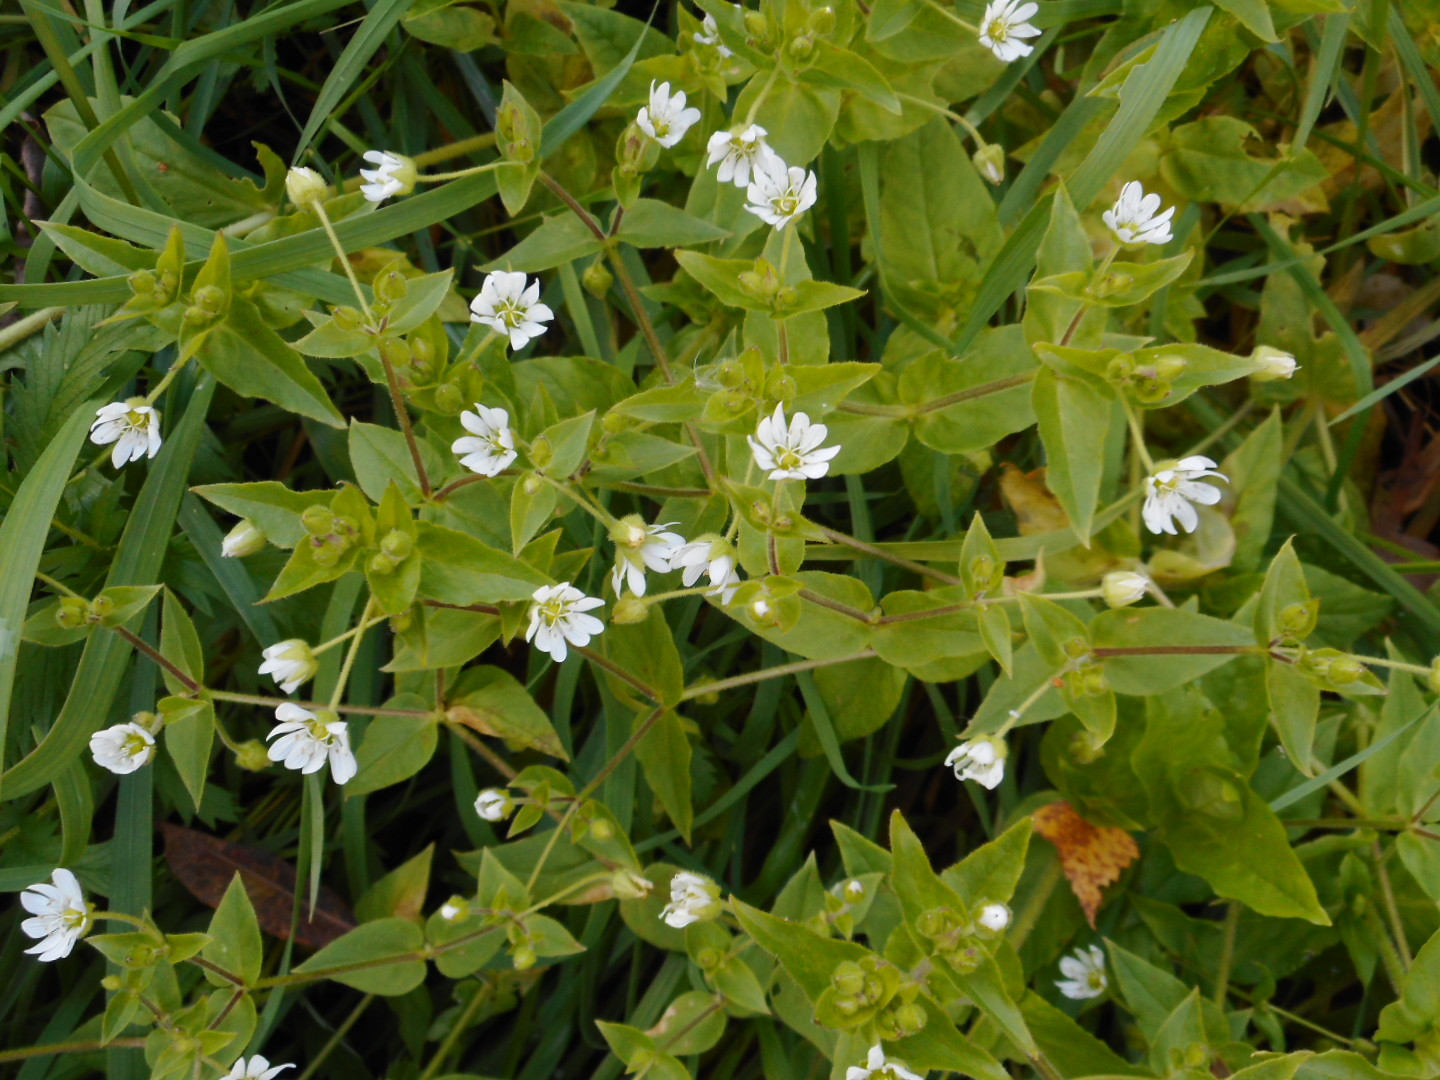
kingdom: Plantae
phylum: Tracheophyta
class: Magnoliopsida
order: Caryophyllales
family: Caryophyllaceae
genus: Stellaria
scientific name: Stellaria aquatica
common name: Water chickweed
